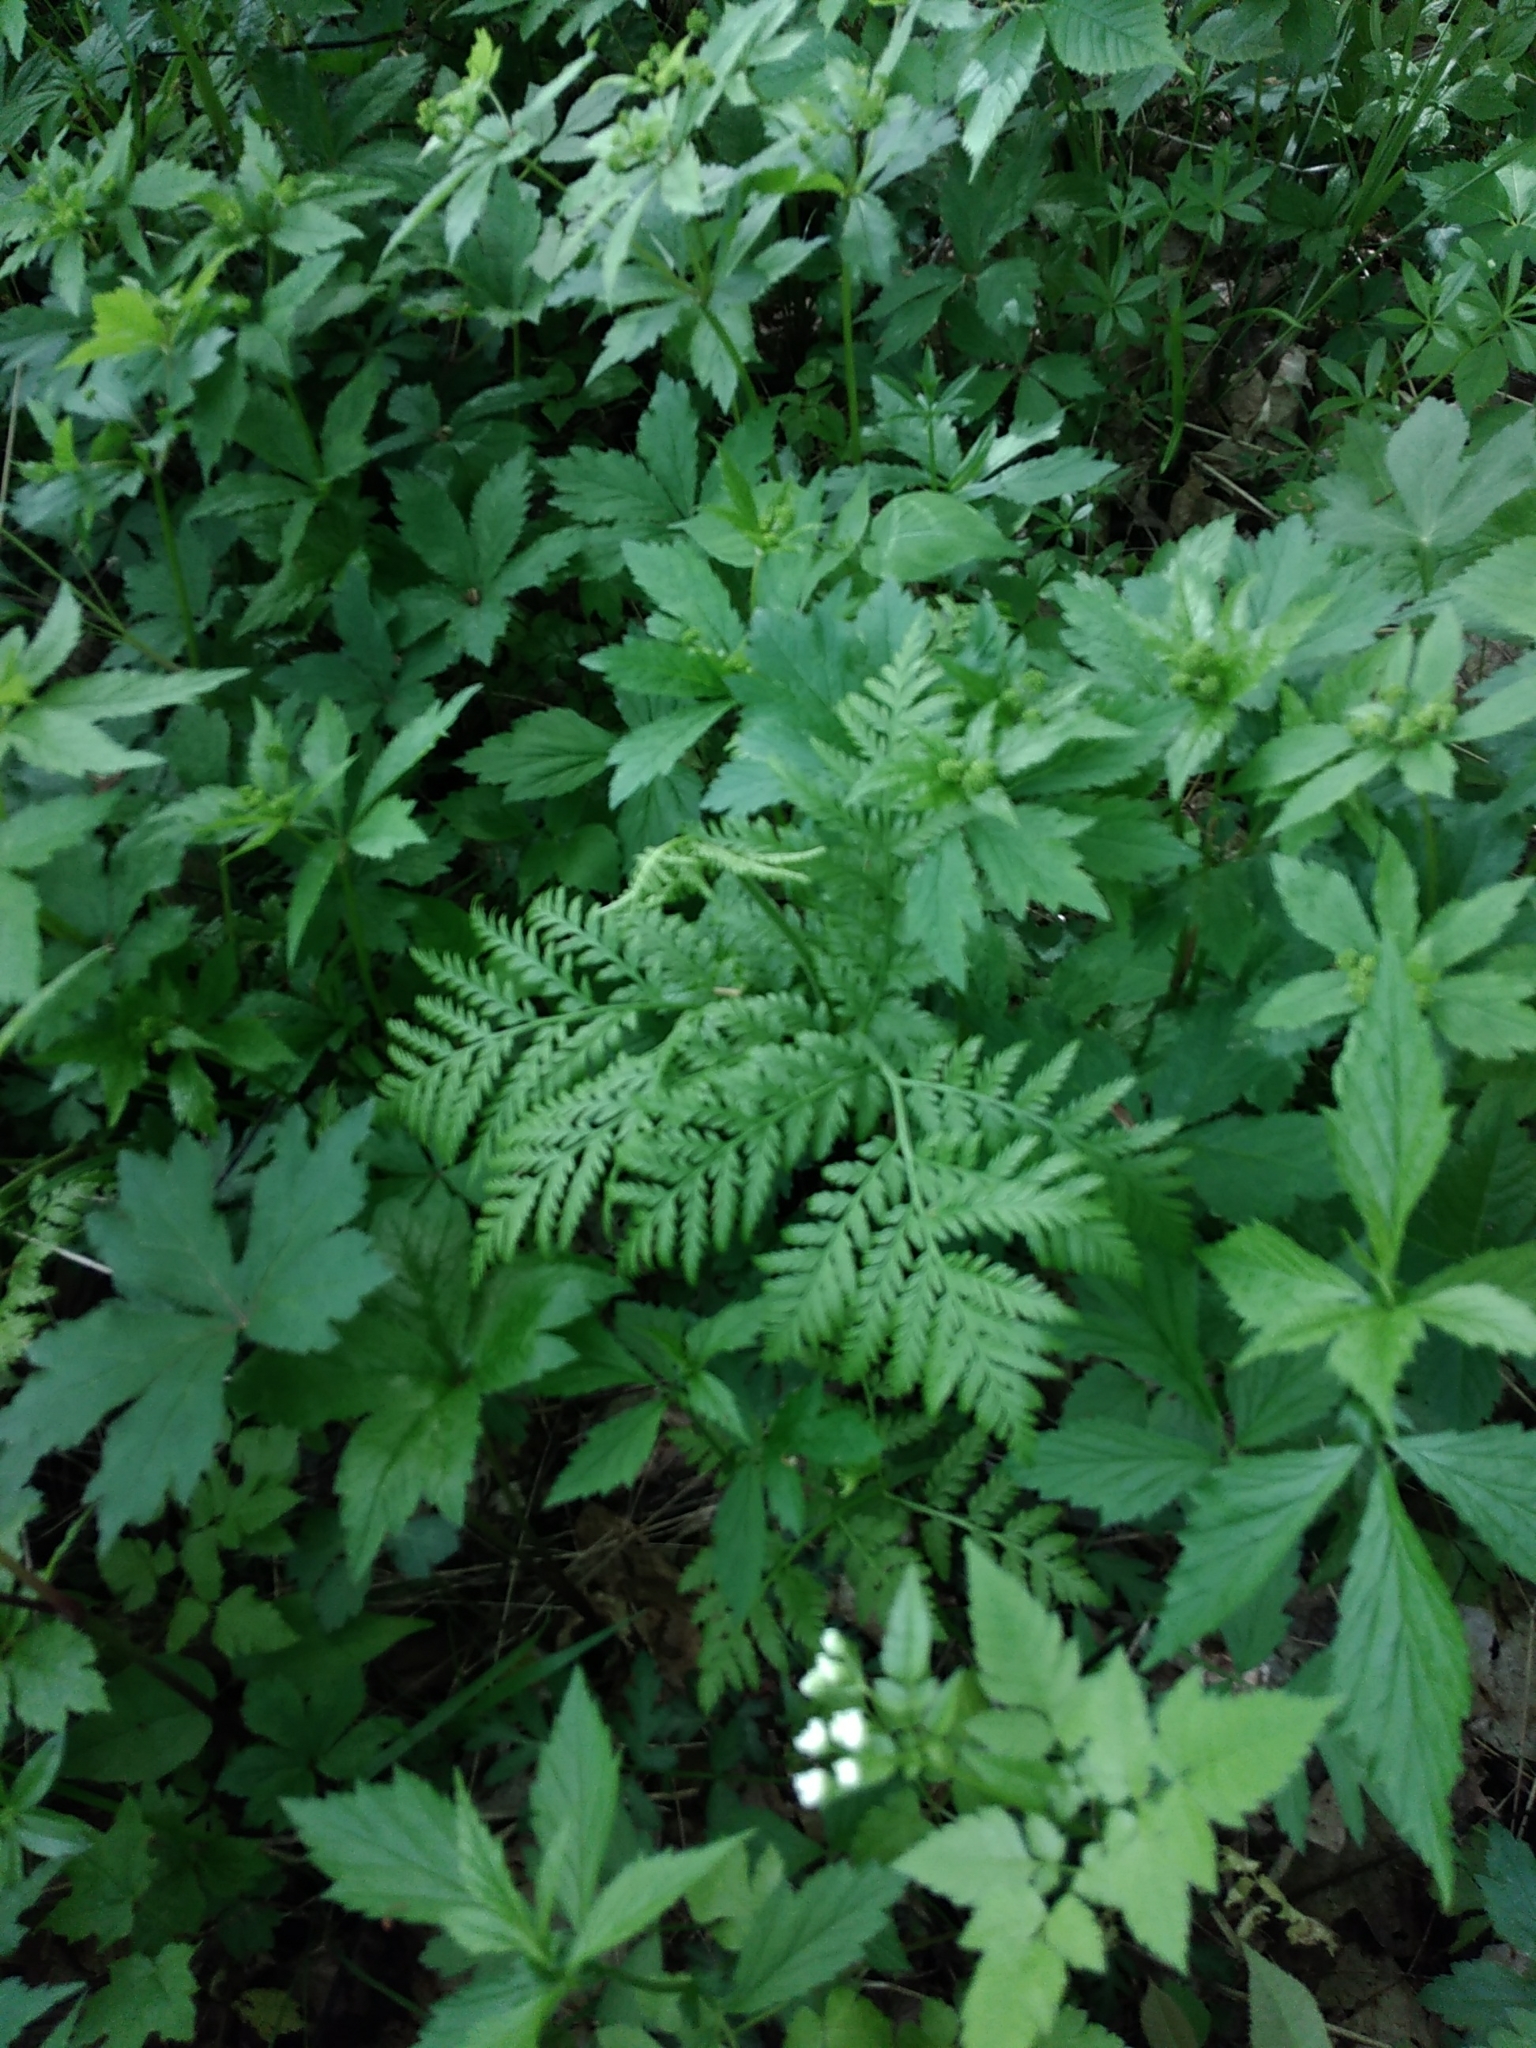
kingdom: Plantae
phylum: Tracheophyta
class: Polypodiopsida
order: Ophioglossales
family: Ophioglossaceae
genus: Botrypus
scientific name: Botrypus virginianus
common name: Common grapefern
